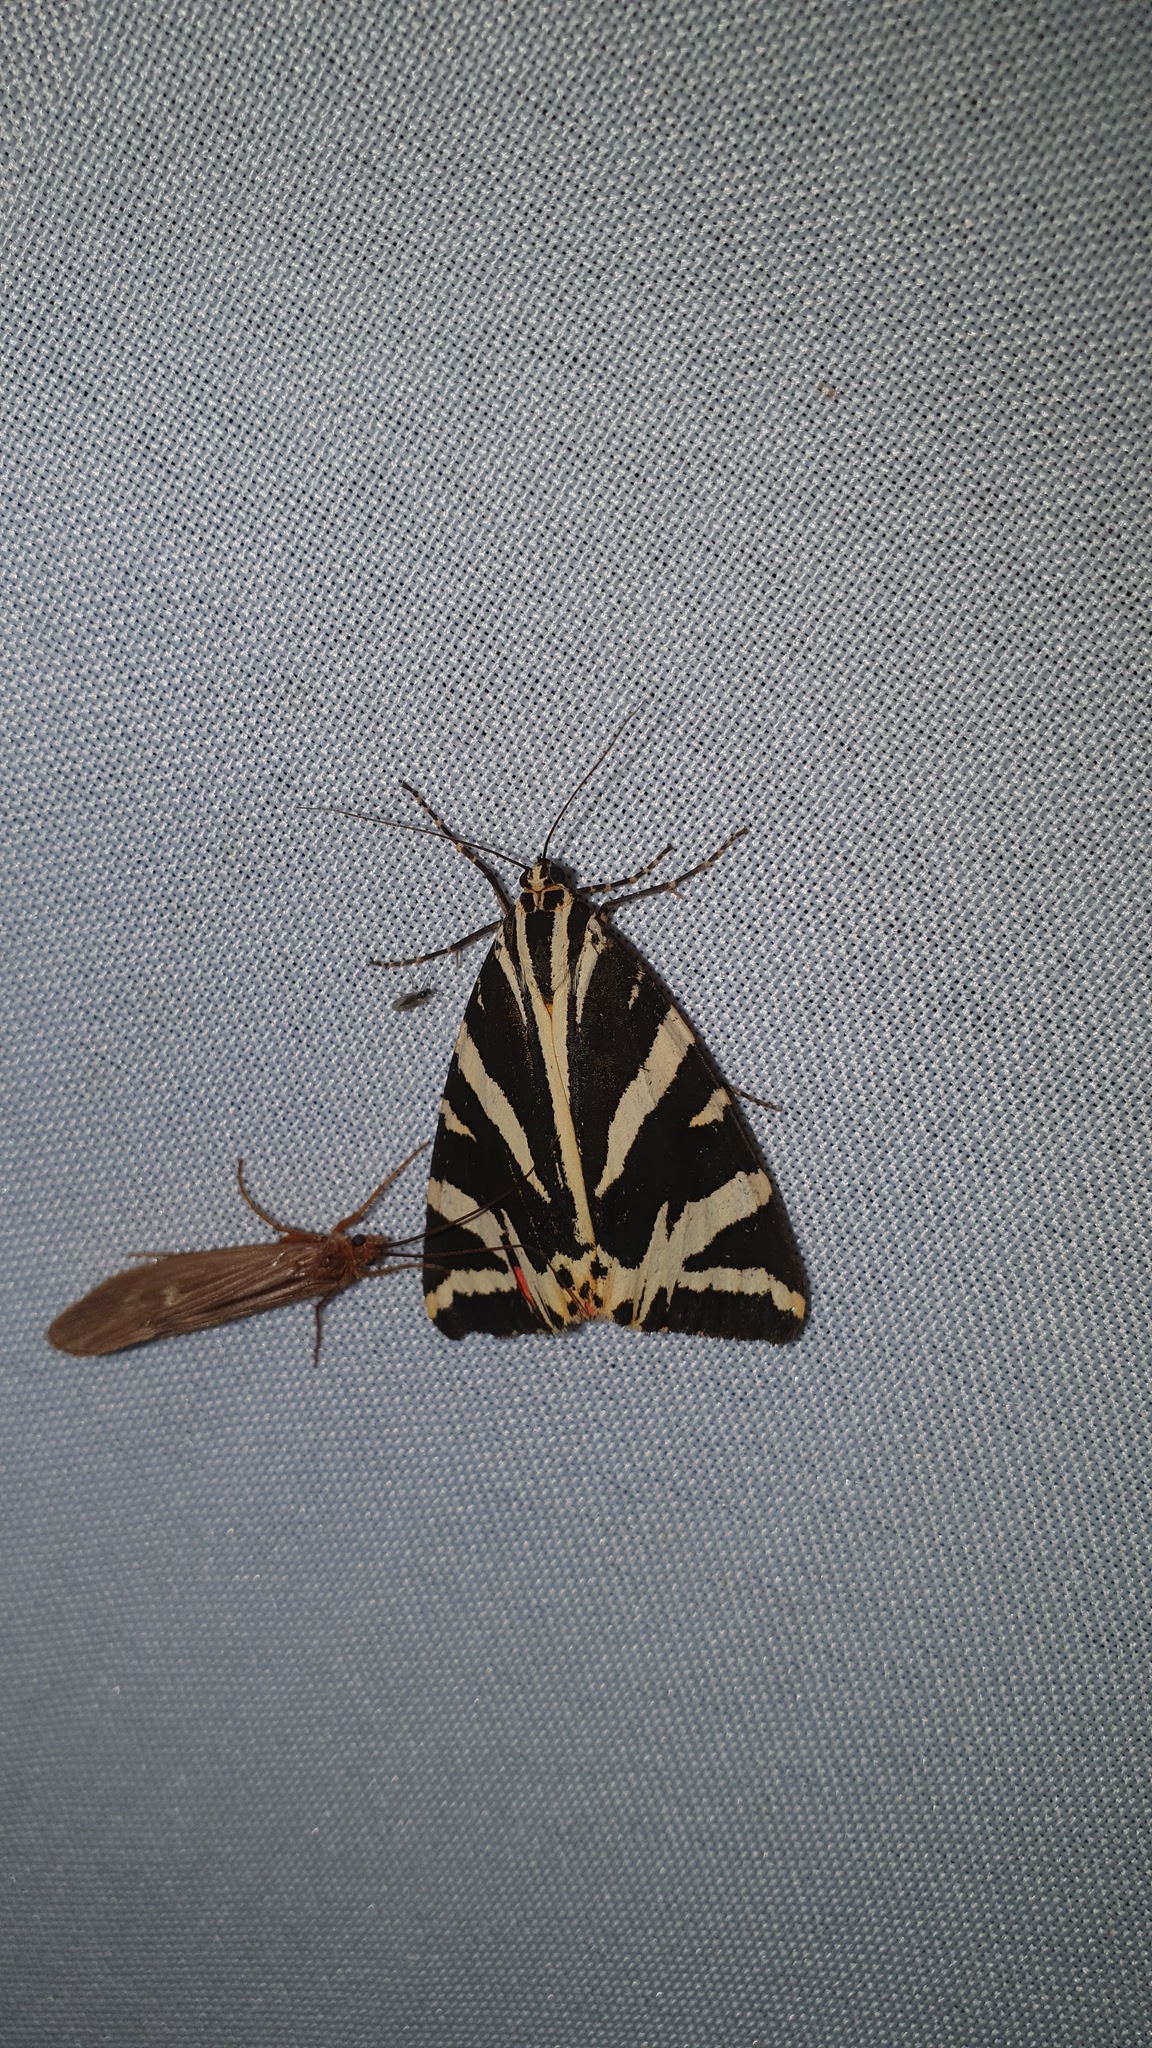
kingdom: Animalia
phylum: Arthropoda
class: Insecta
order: Lepidoptera
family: Erebidae
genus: Euplagia
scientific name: Euplagia quadripunctaria
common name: Jersey tiger
